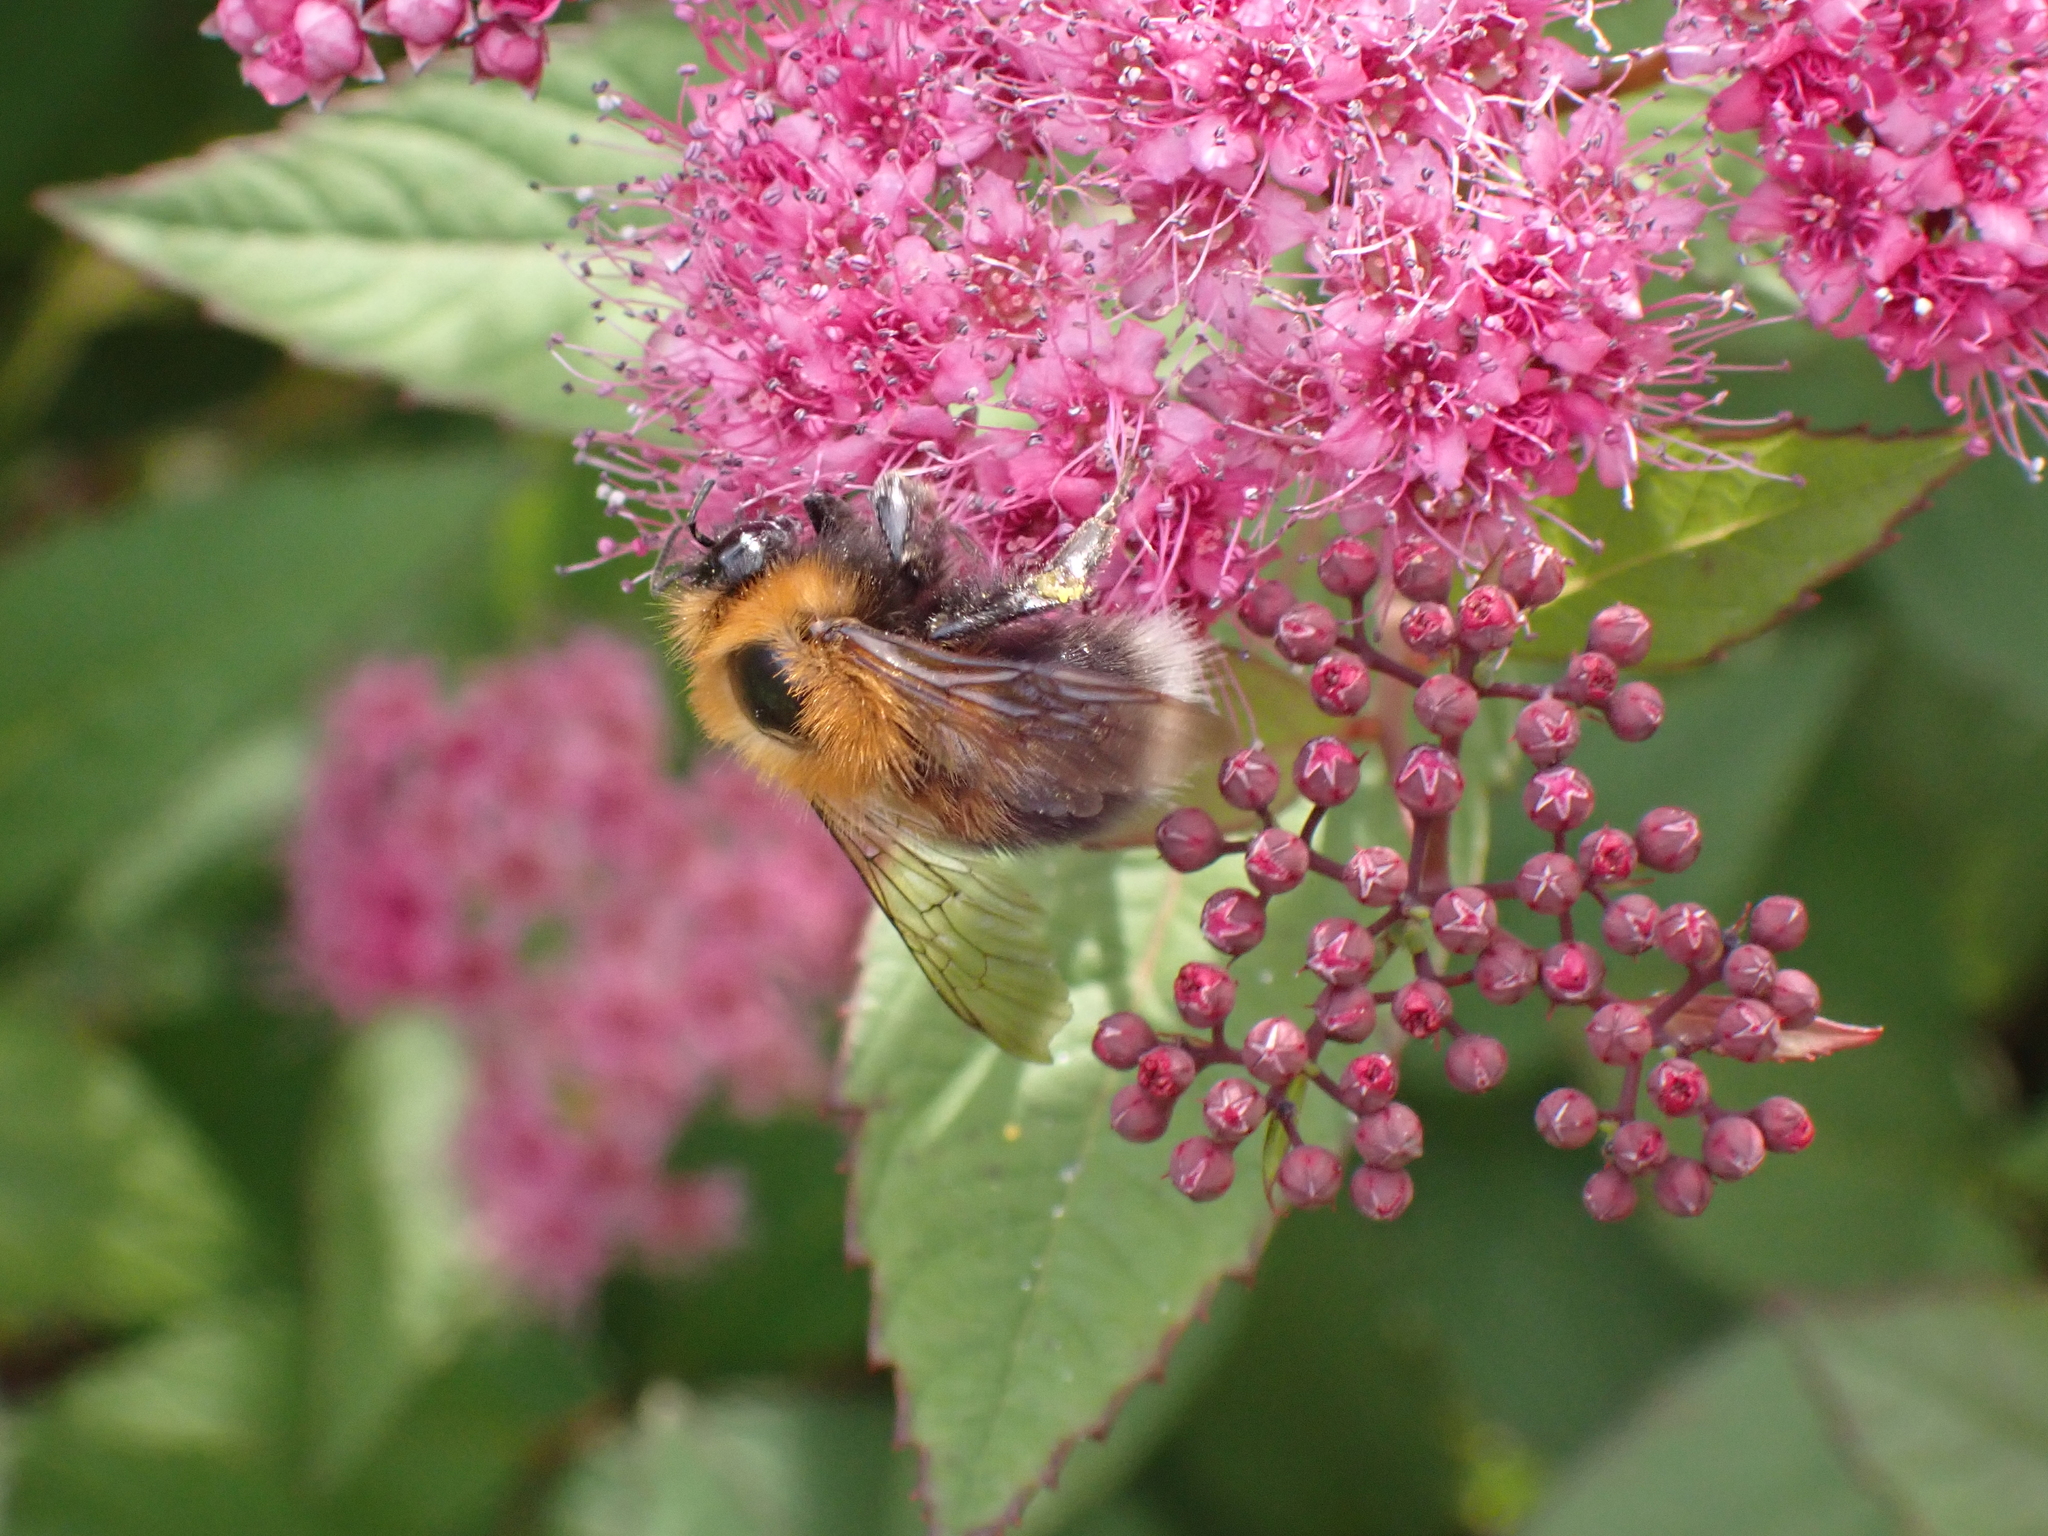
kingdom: Animalia
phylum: Arthropoda
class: Insecta
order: Hymenoptera
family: Apidae
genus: Bombus
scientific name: Bombus hypnorum
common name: New garden bumblebee
